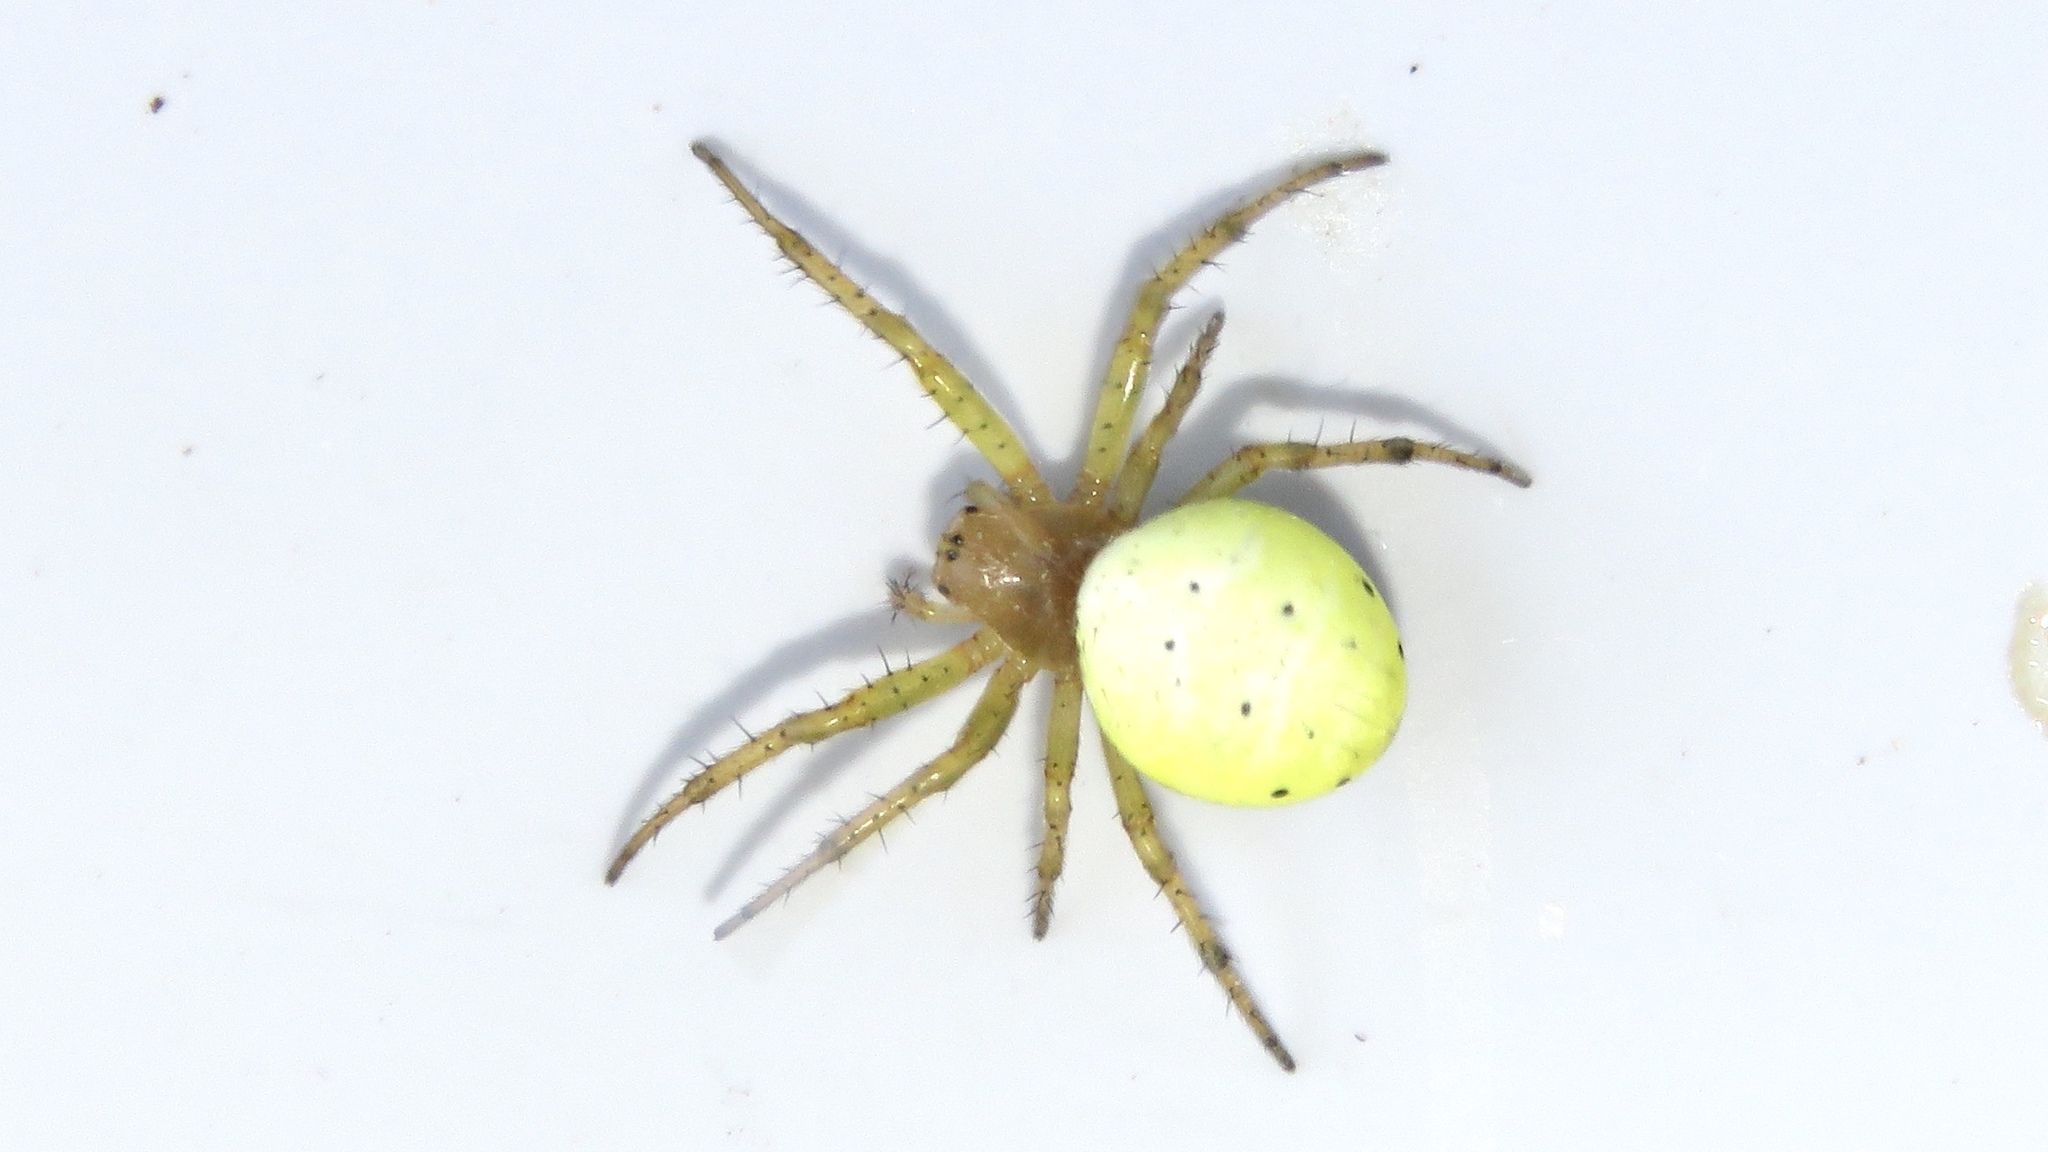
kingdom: Animalia
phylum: Arthropoda
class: Arachnida
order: Araneae
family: Araneidae
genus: Araniella
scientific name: Araniella displicata
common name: Sixspotted orb weaver
